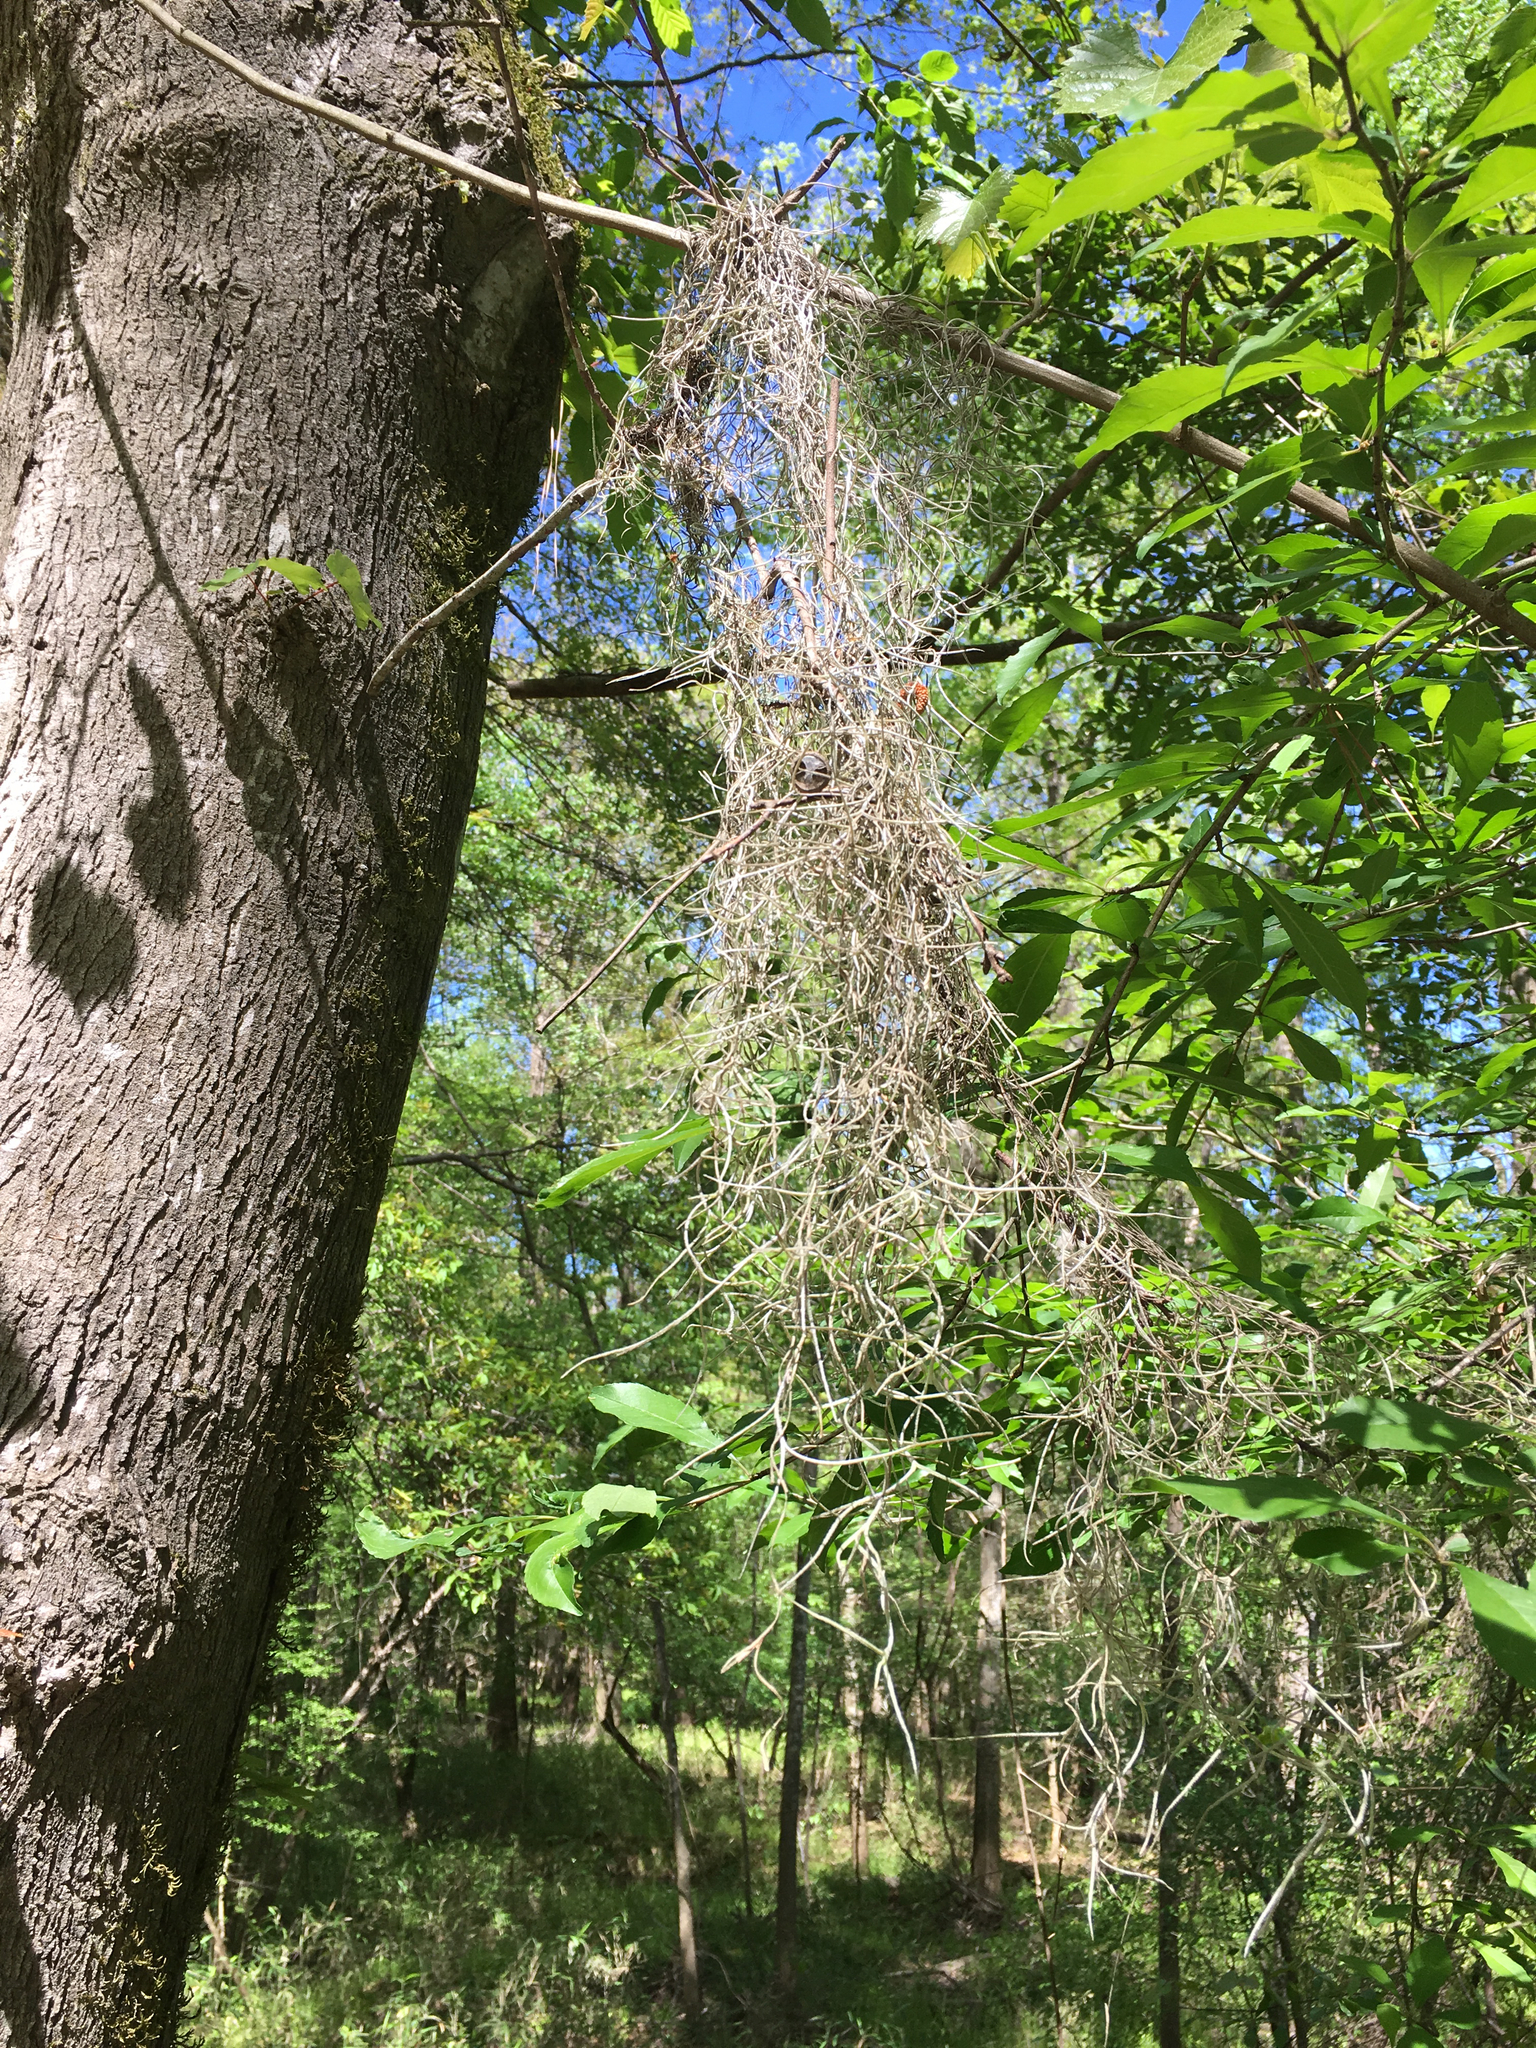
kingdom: Plantae
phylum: Tracheophyta
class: Liliopsida
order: Poales
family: Bromeliaceae
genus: Tillandsia
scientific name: Tillandsia usneoides
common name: Spanish moss
